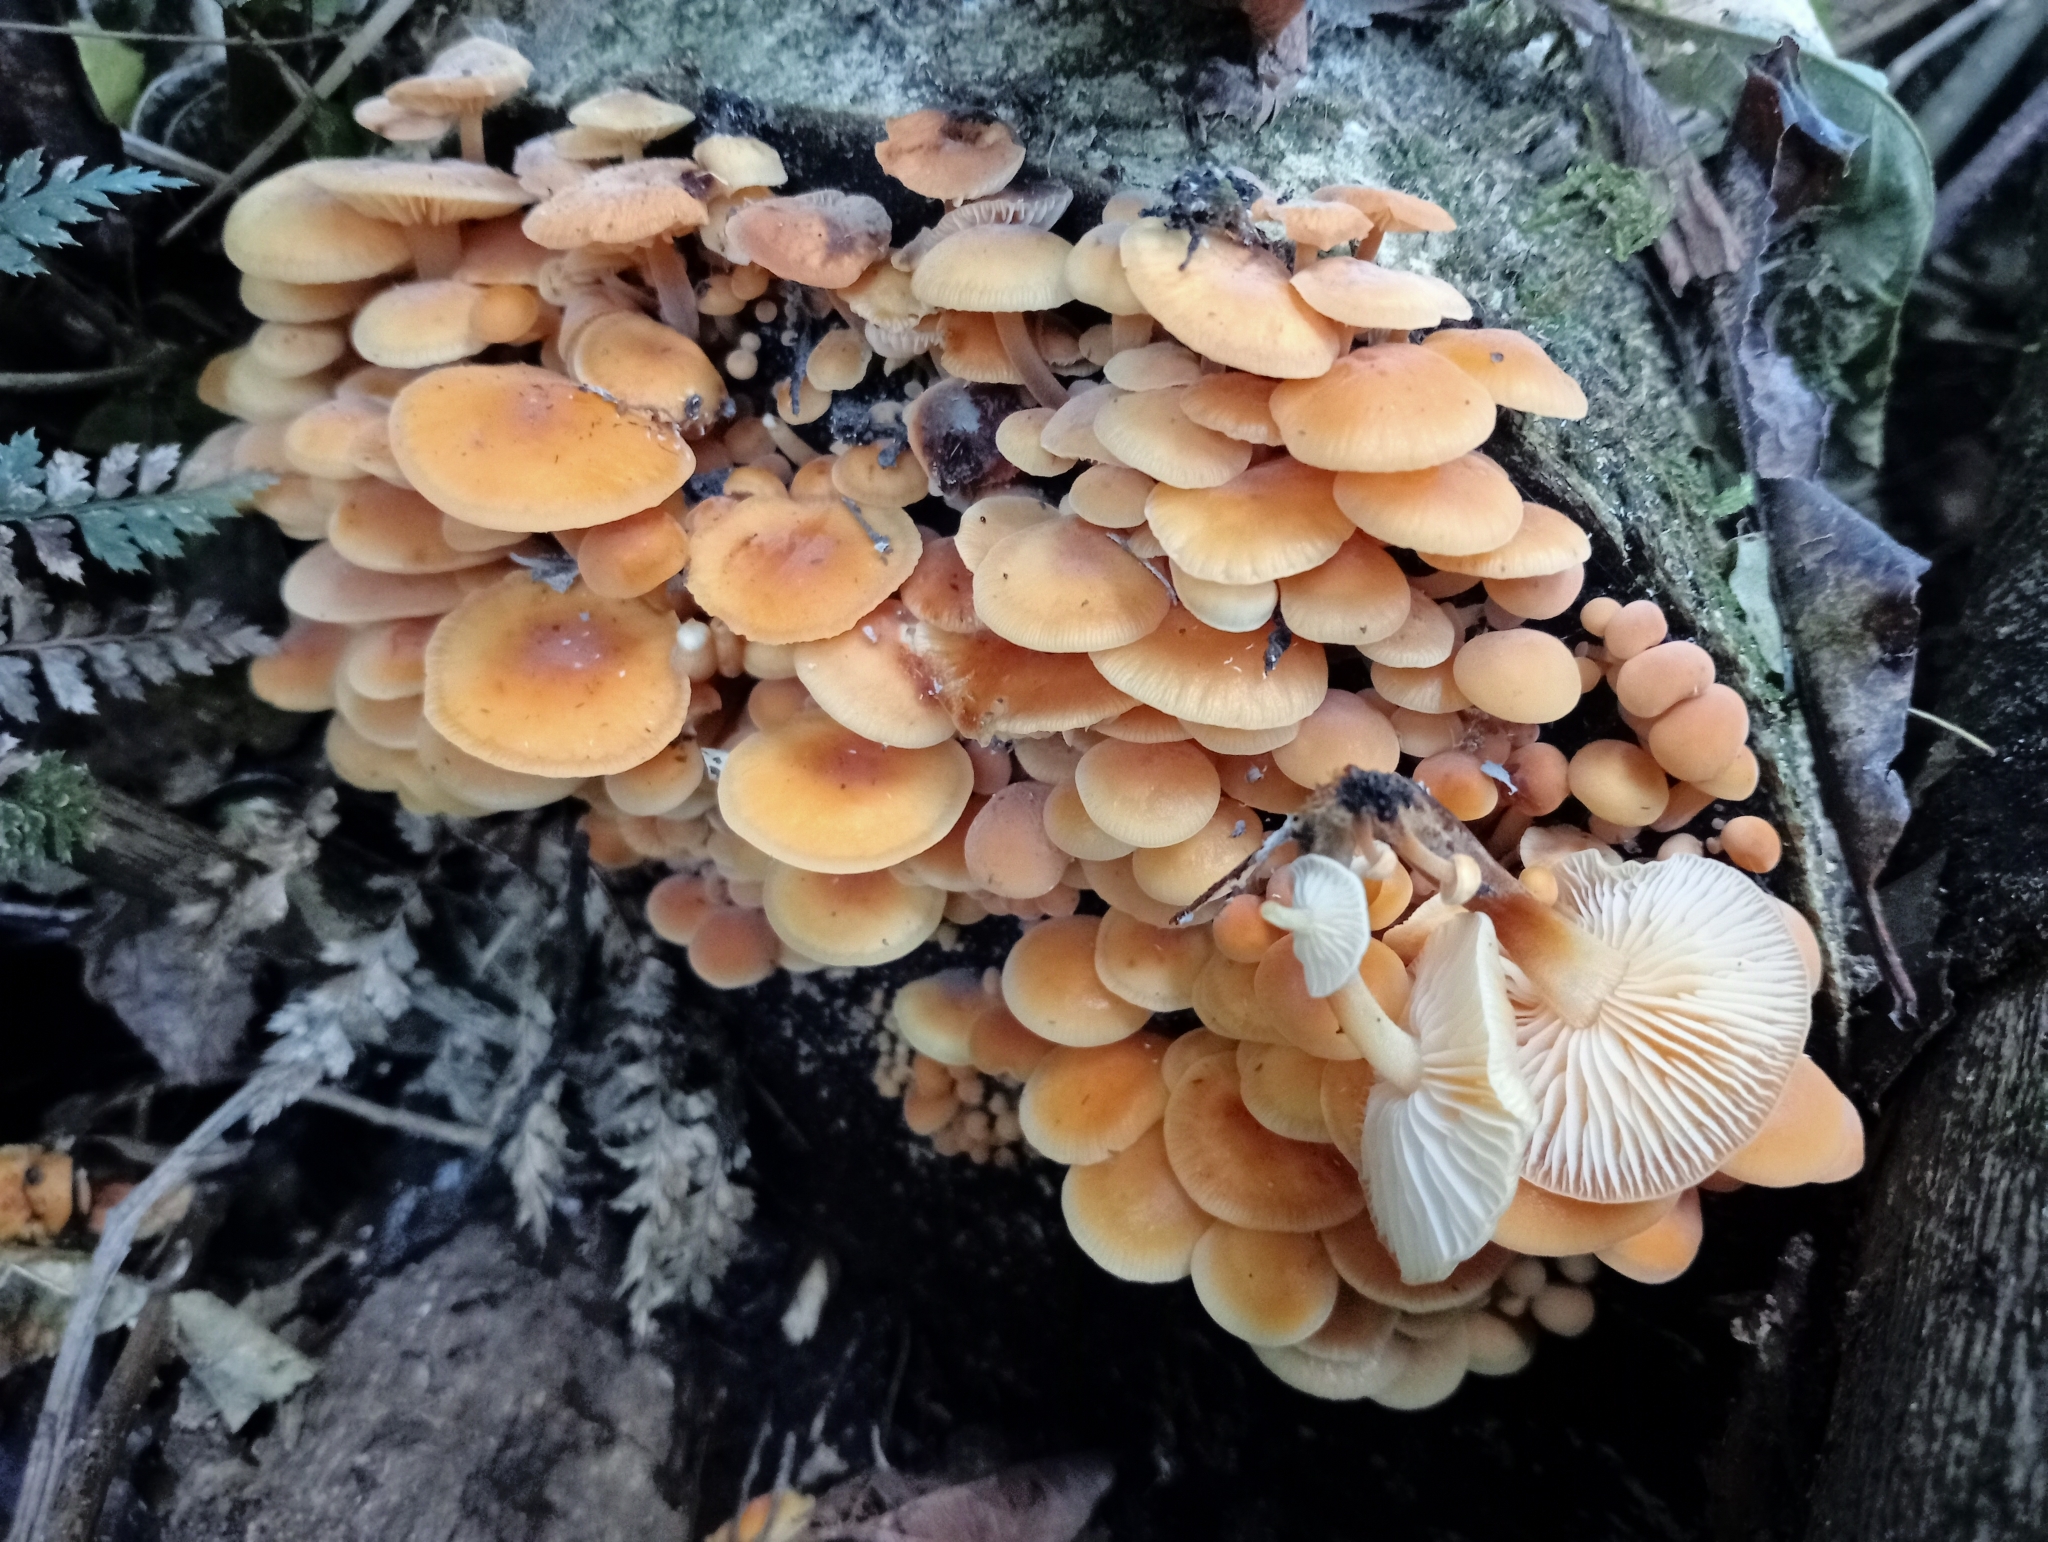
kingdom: Fungi
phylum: Basidiomycota
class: Agaricomycetes
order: Agaricales
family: Physalacriaceae
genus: Flammulina
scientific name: Flammulina velutipes
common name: Velvet shank
